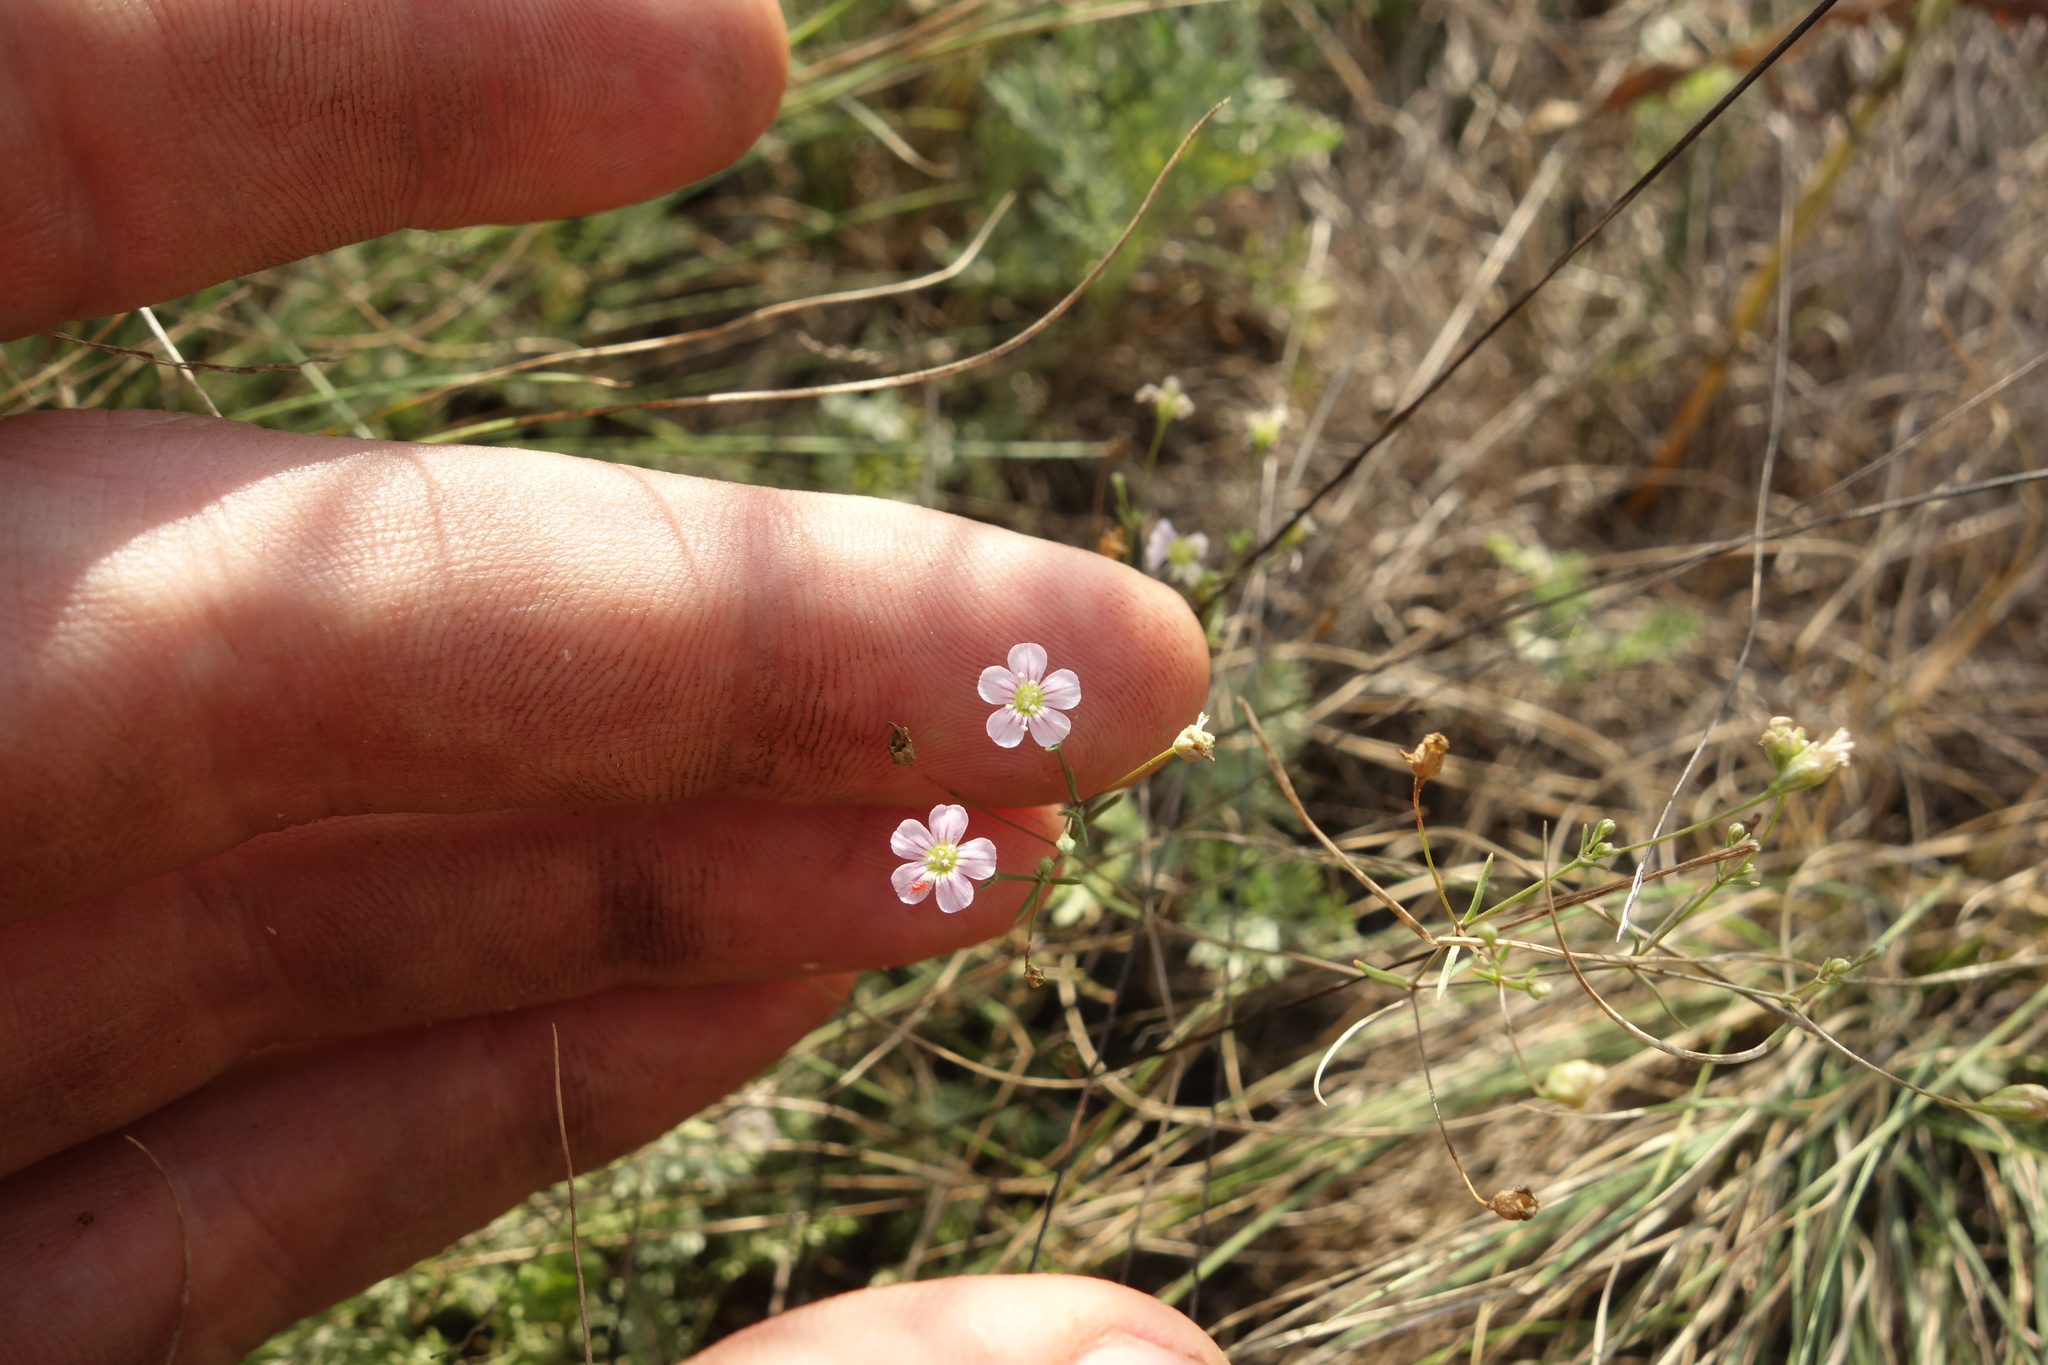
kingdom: Plantae
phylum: Tracheophyta
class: Magnoliopsida
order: Caryophyllales
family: Caryophyllaceae
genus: Psammophiliella
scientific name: Psammophiliella muralis
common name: Cushion baby's-breath
